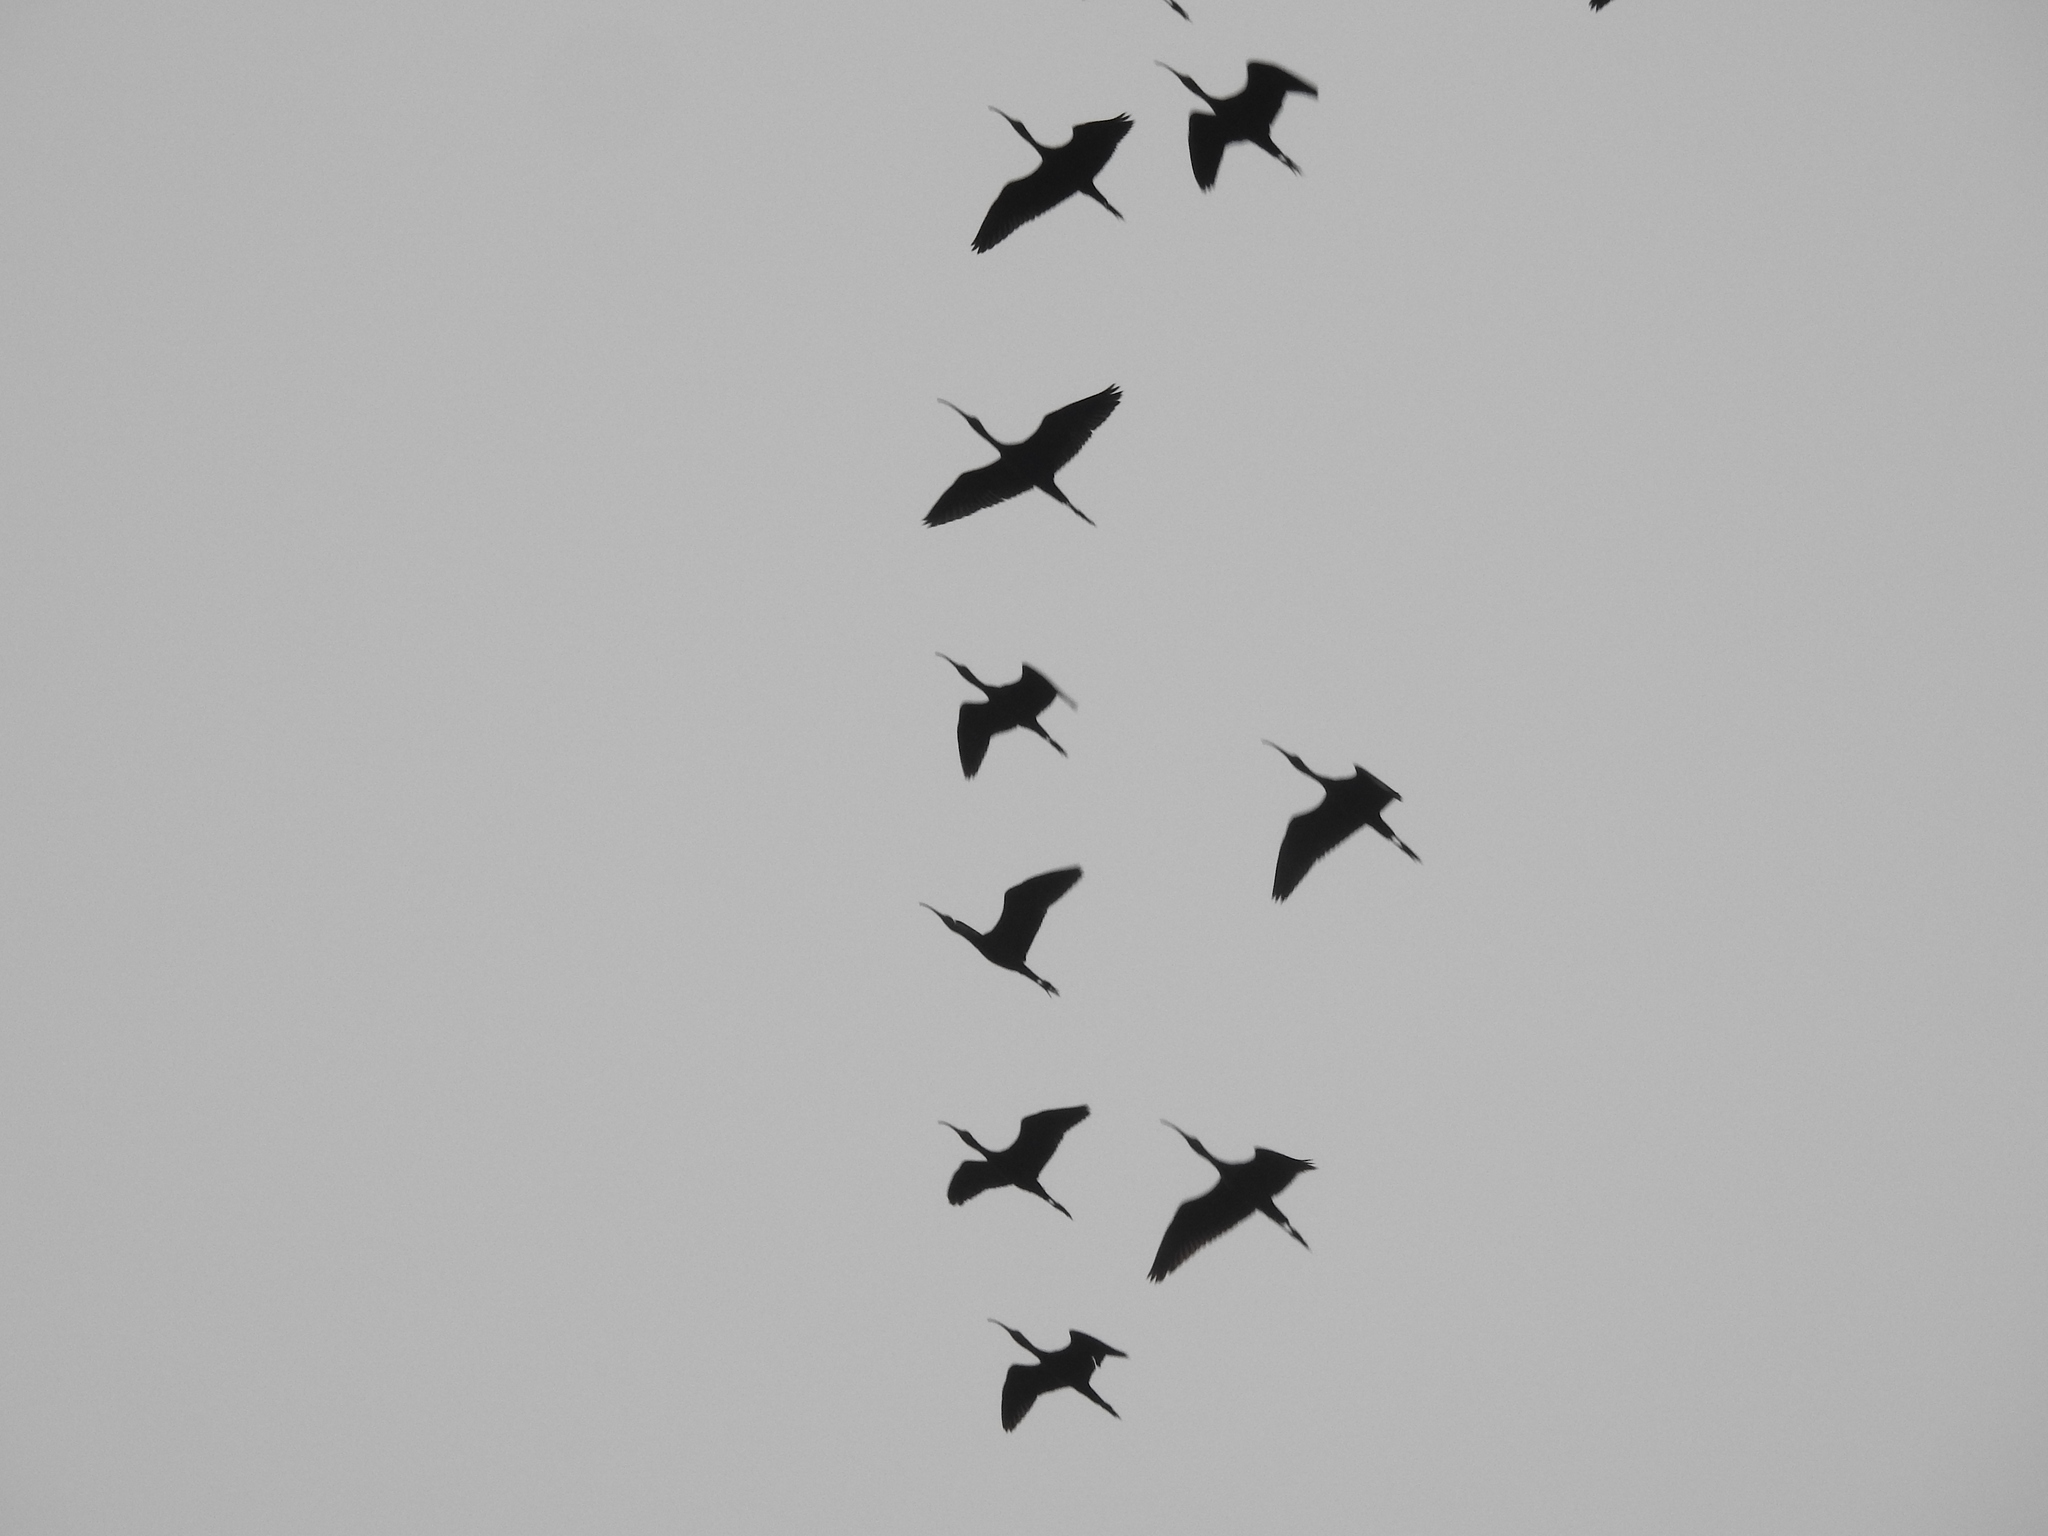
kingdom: Animalia
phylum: Chordata
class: Aves
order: Pelecaniformes
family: Threskiornithidae
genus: Plegadis
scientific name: Plegadis falcinellus
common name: Glossy ibis
